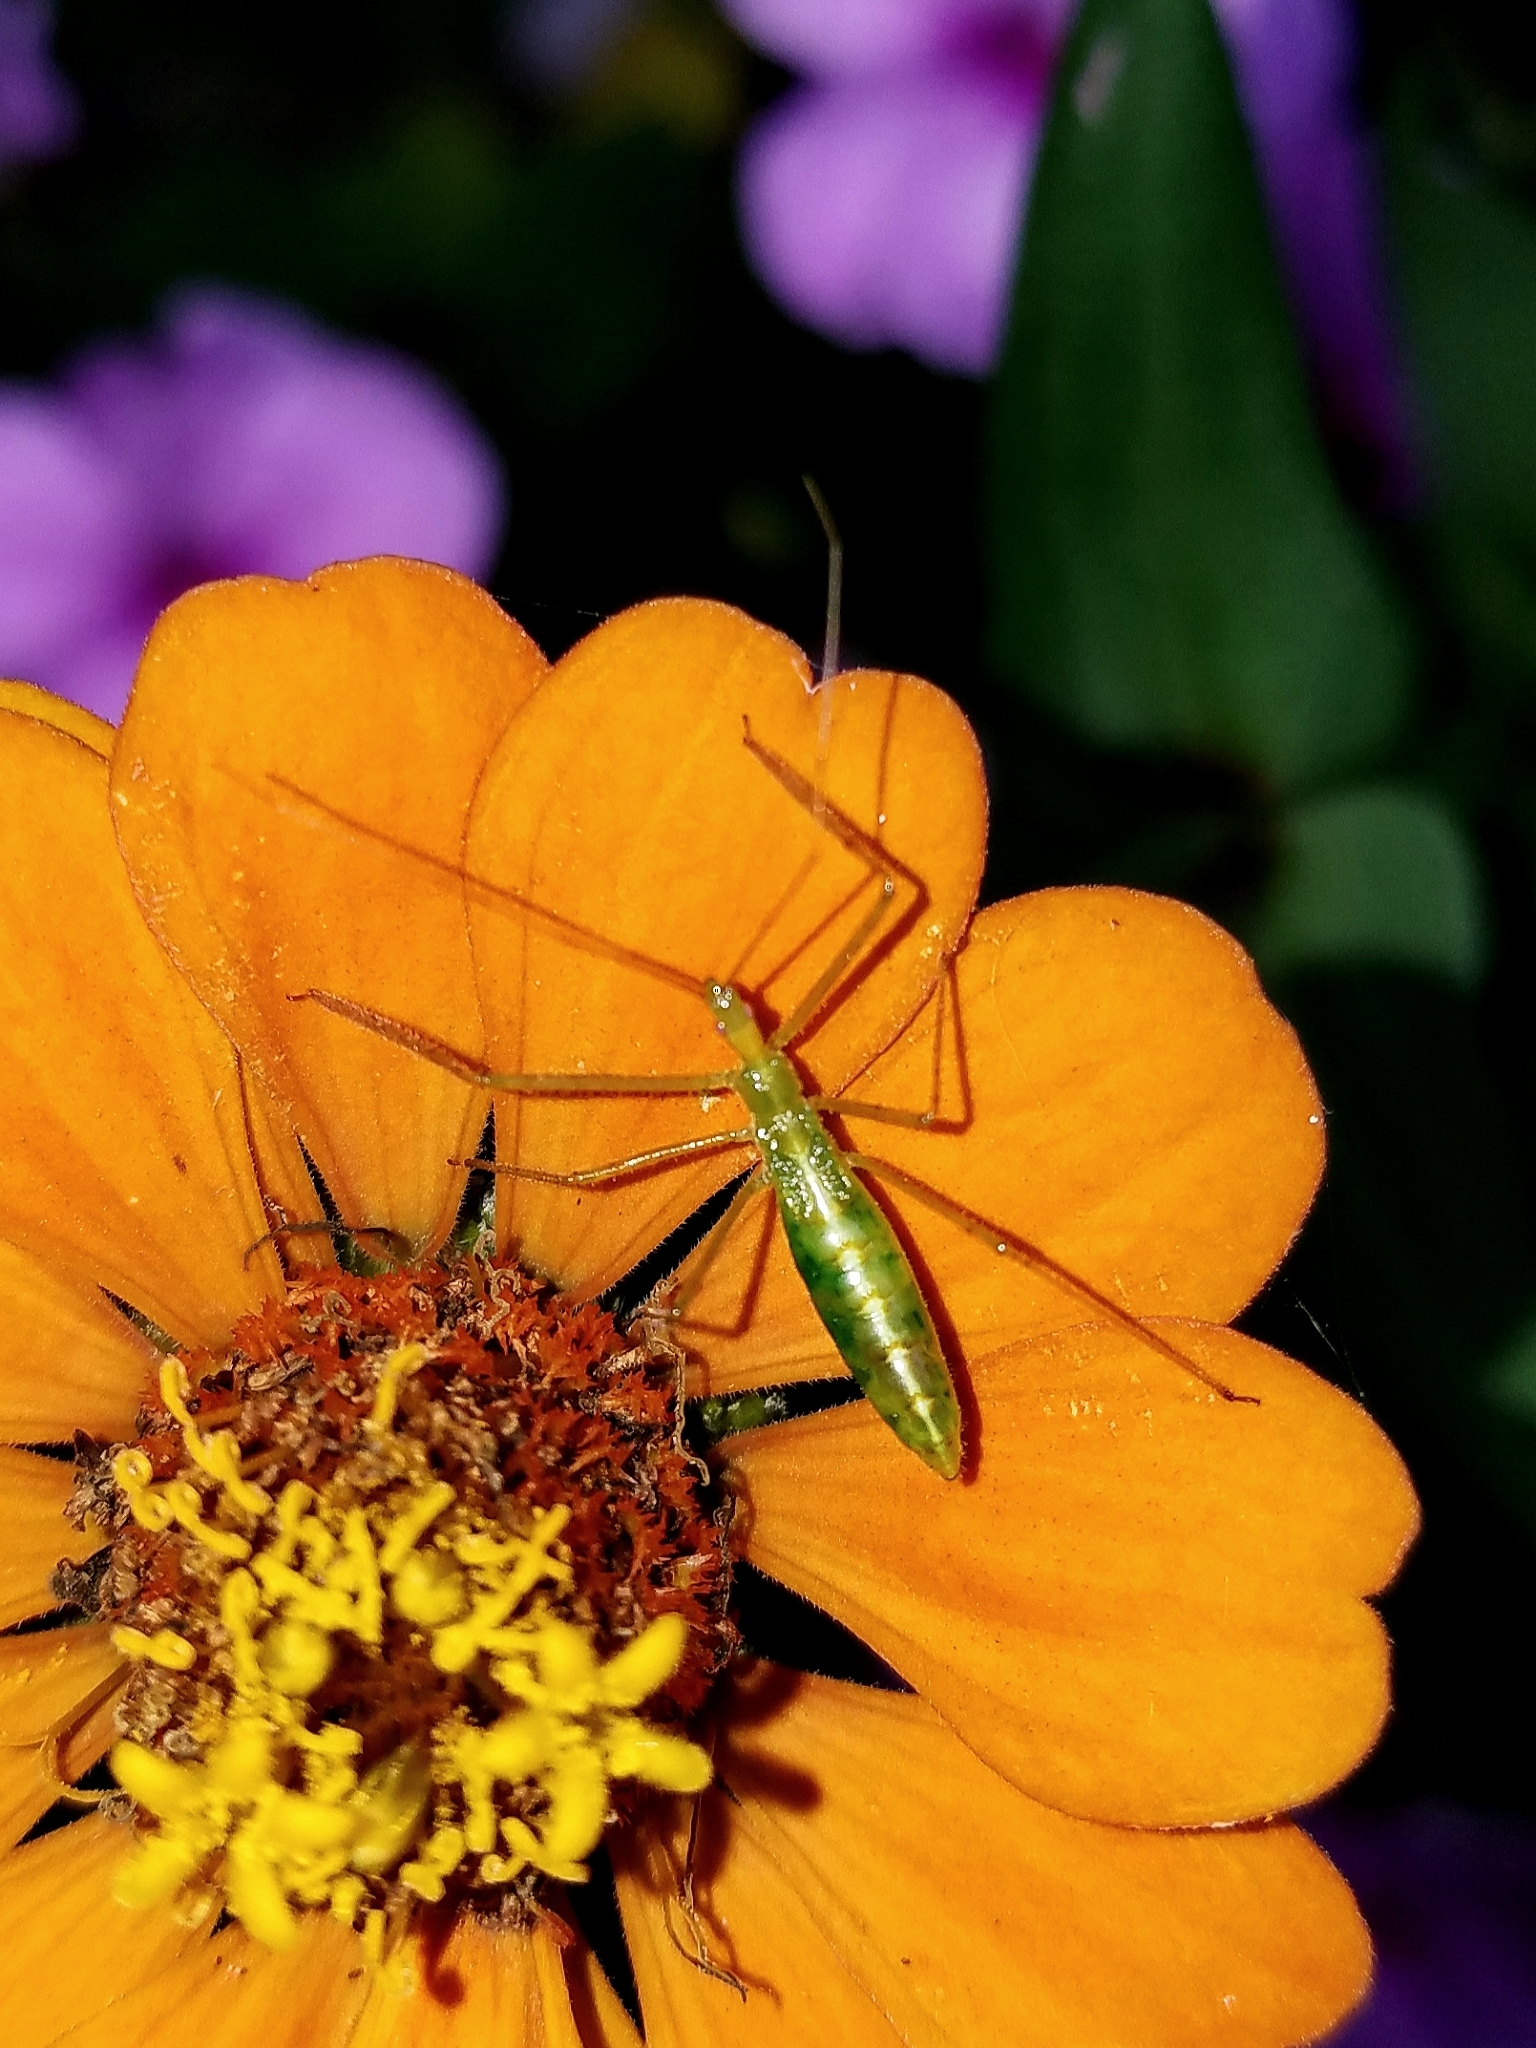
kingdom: Animalia
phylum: Arthropoda
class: Insecta
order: Hemiptera
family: Reduviidae
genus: Zelus
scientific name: Zelus luridus
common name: Pale green assassin bug
